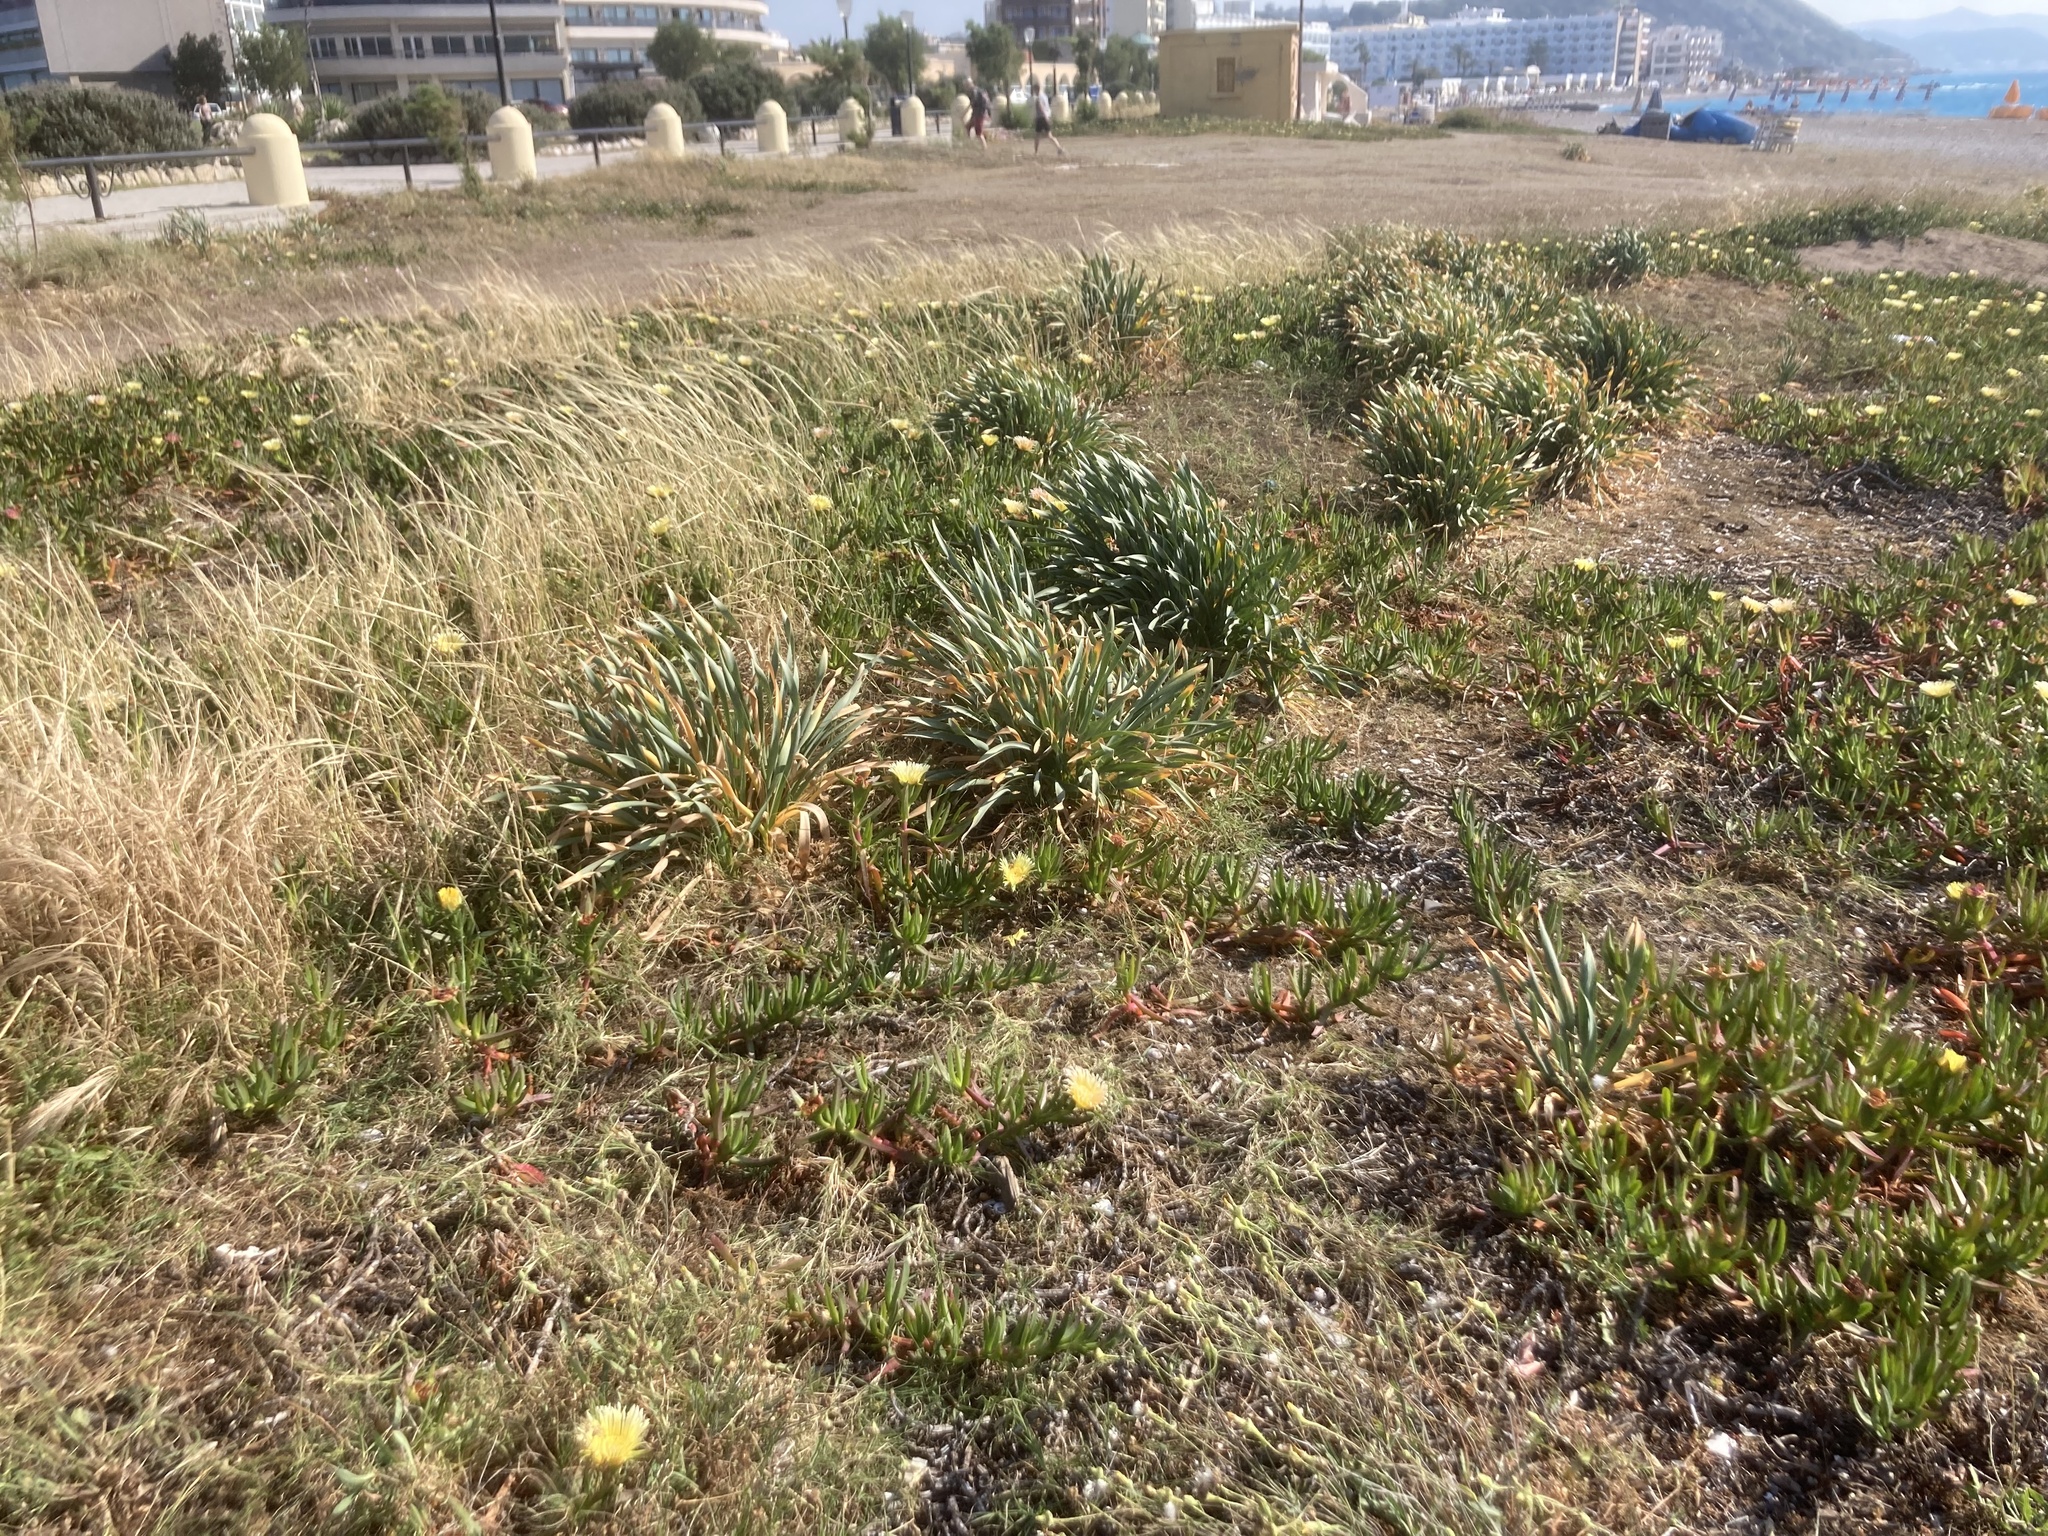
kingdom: Plantae
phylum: Tracheophyta
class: Liliopsida
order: Asparagales
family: Amaryllidaceae
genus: Pancratium
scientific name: Pancratium maritimum
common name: Sea-daffodil
